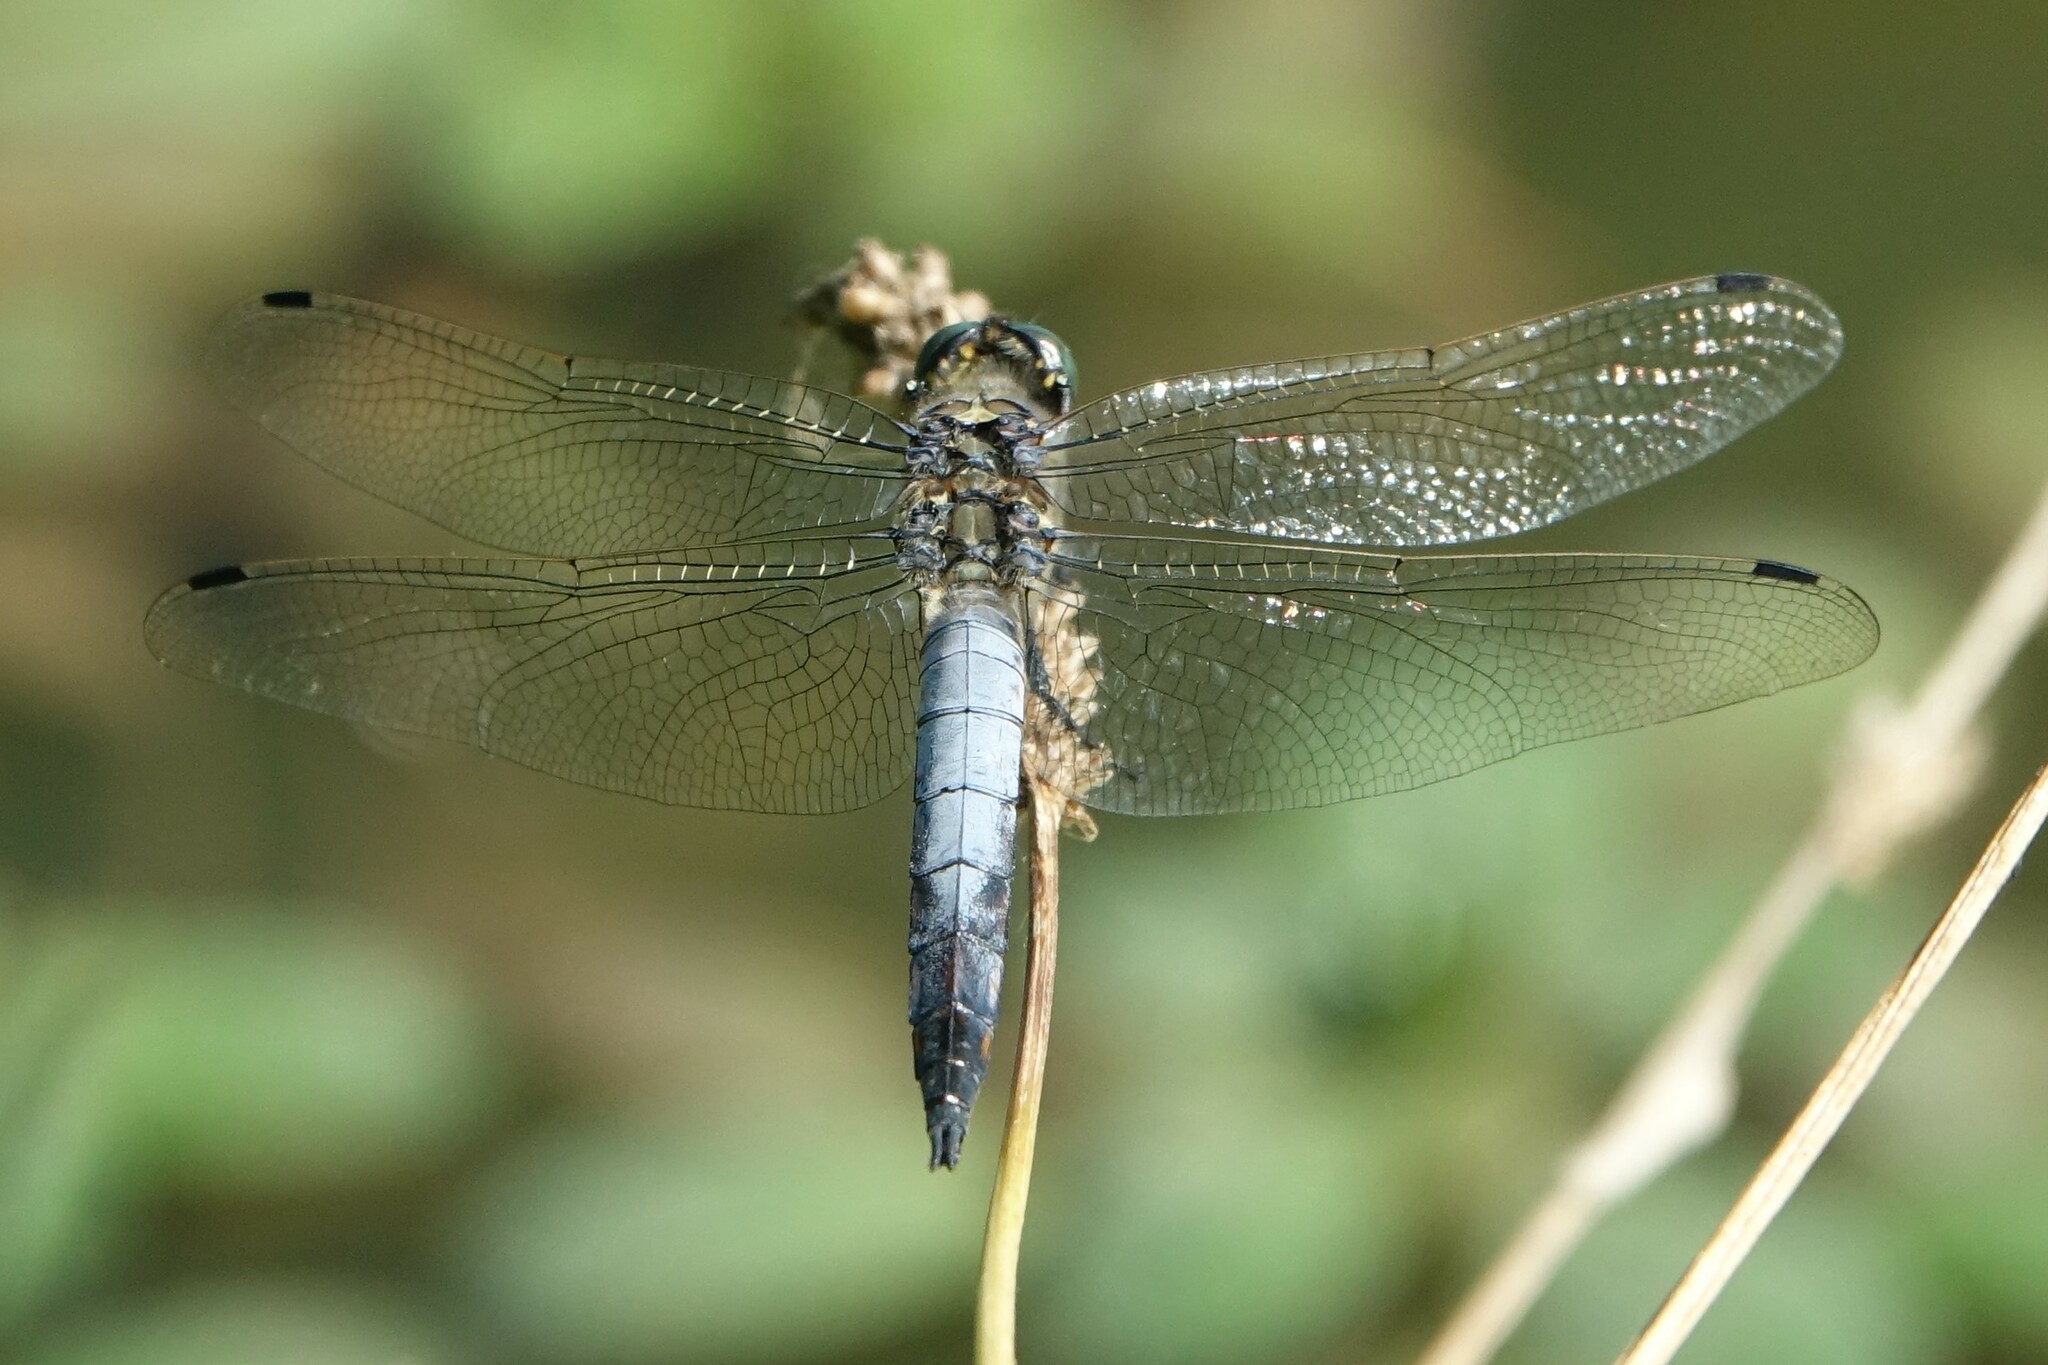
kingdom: Animalia
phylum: Arthropoda
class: Insecta
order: Odonata
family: Libellulidae
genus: Orthetrum
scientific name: Orthetrum cancellatum
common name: Black-tailed skimmer
